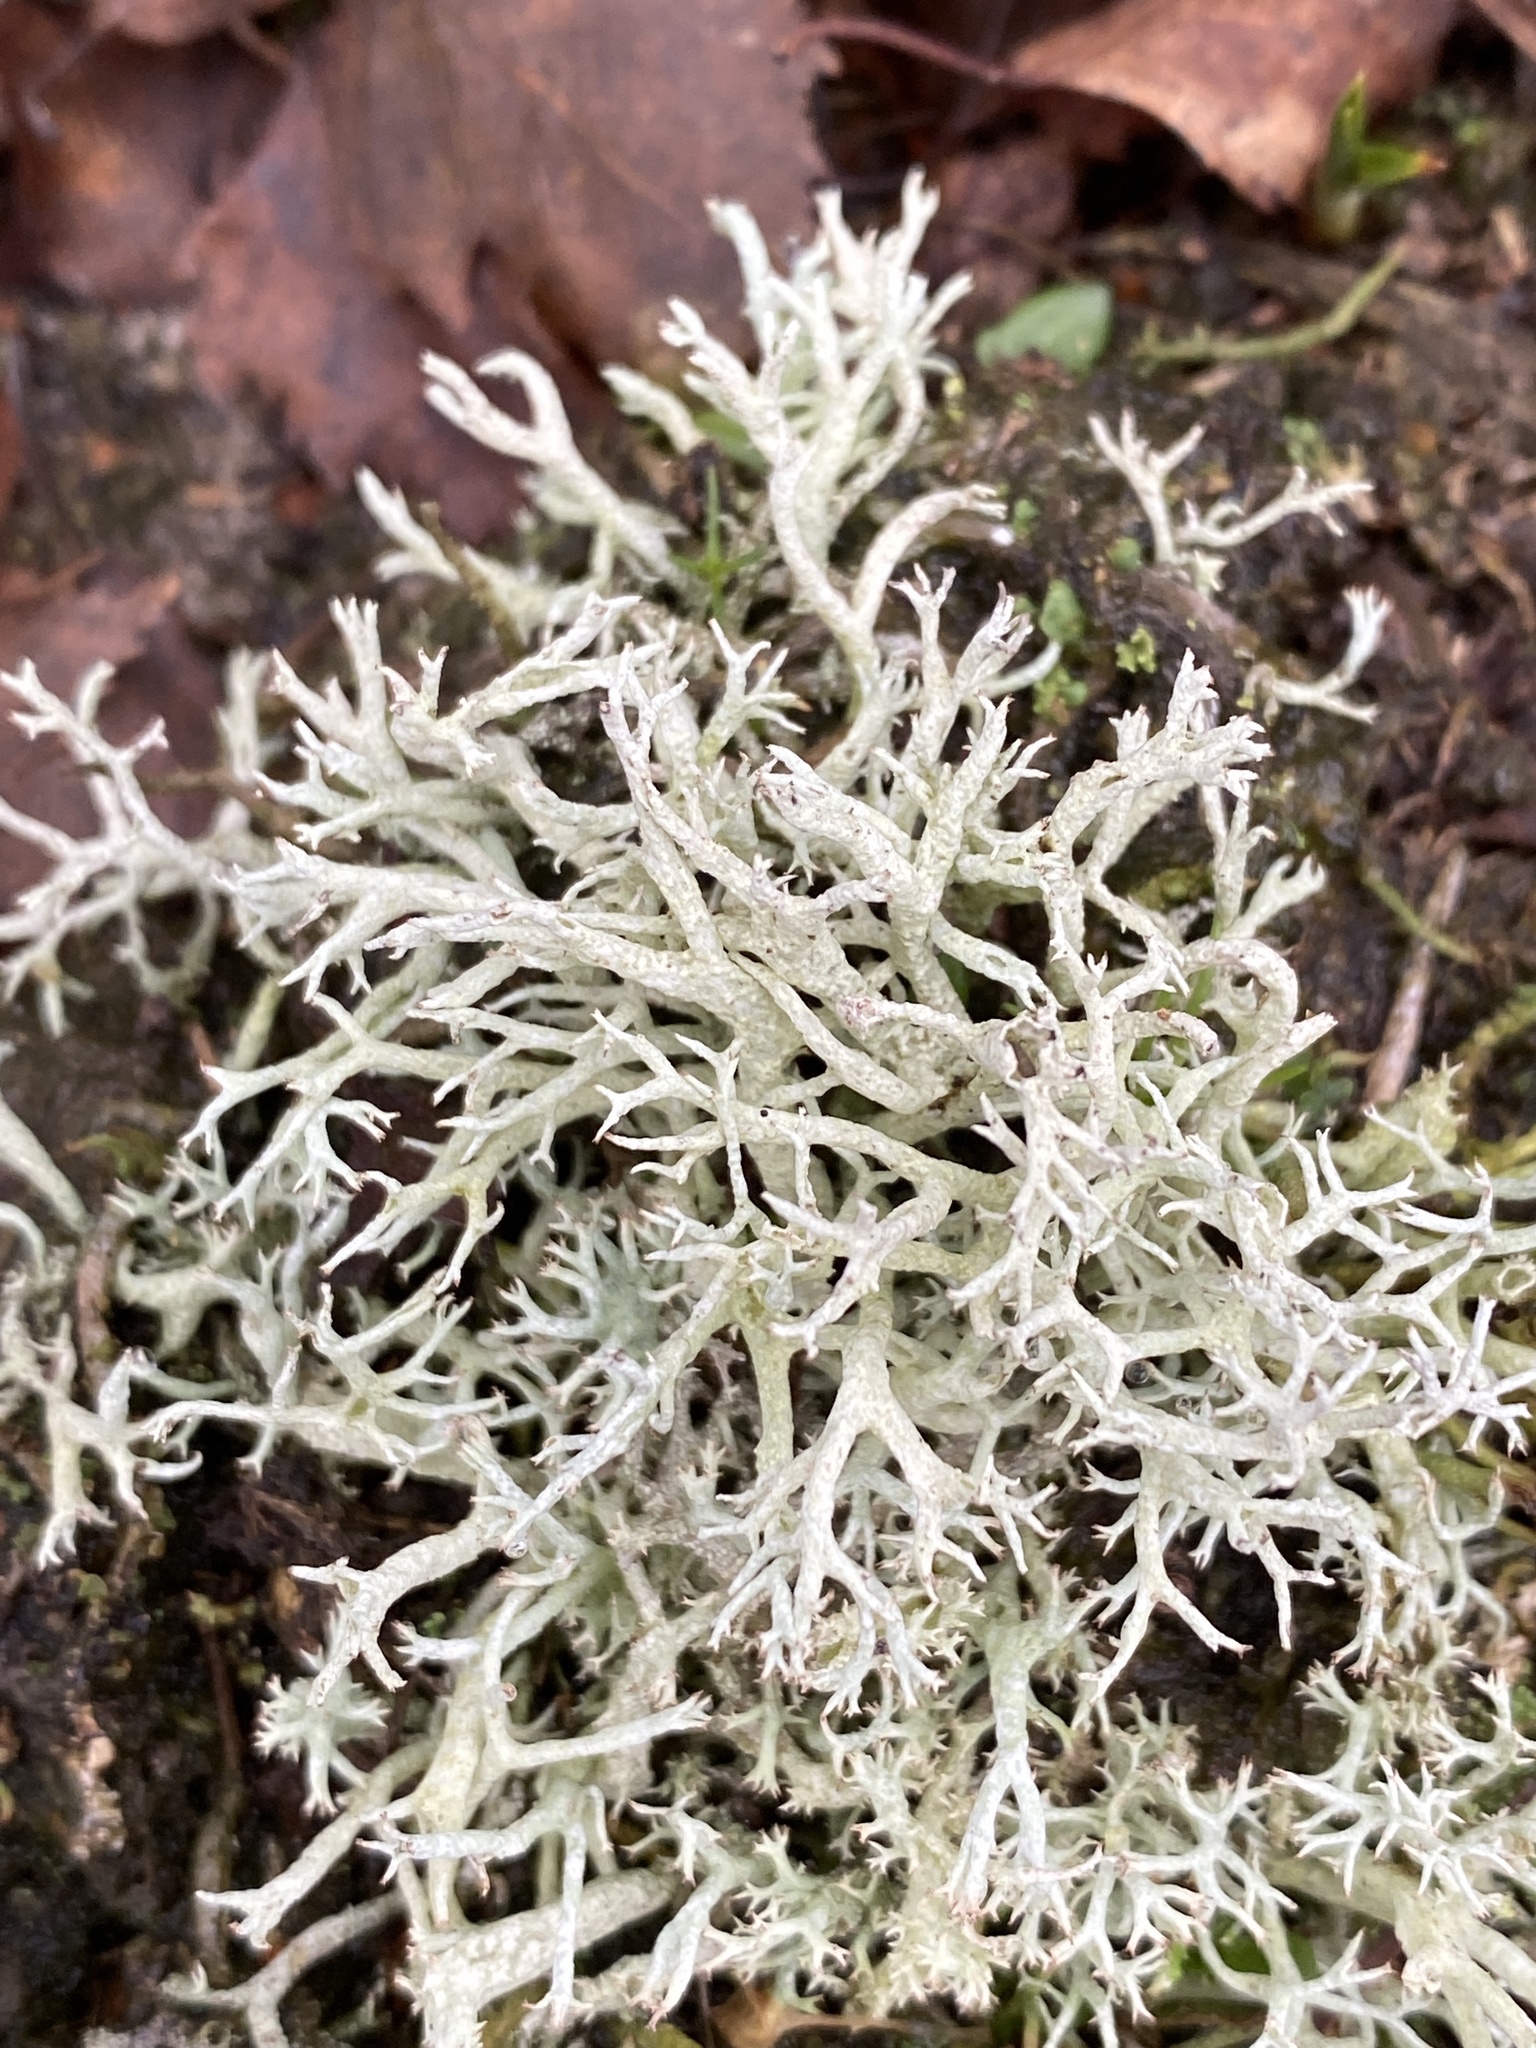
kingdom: Fungi
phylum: Ascomycota
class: Lecanoromycetes
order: Lecanorales
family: Cladoniaceae
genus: Cladonia
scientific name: Cladonia portentosa
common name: Reindeer lichen
